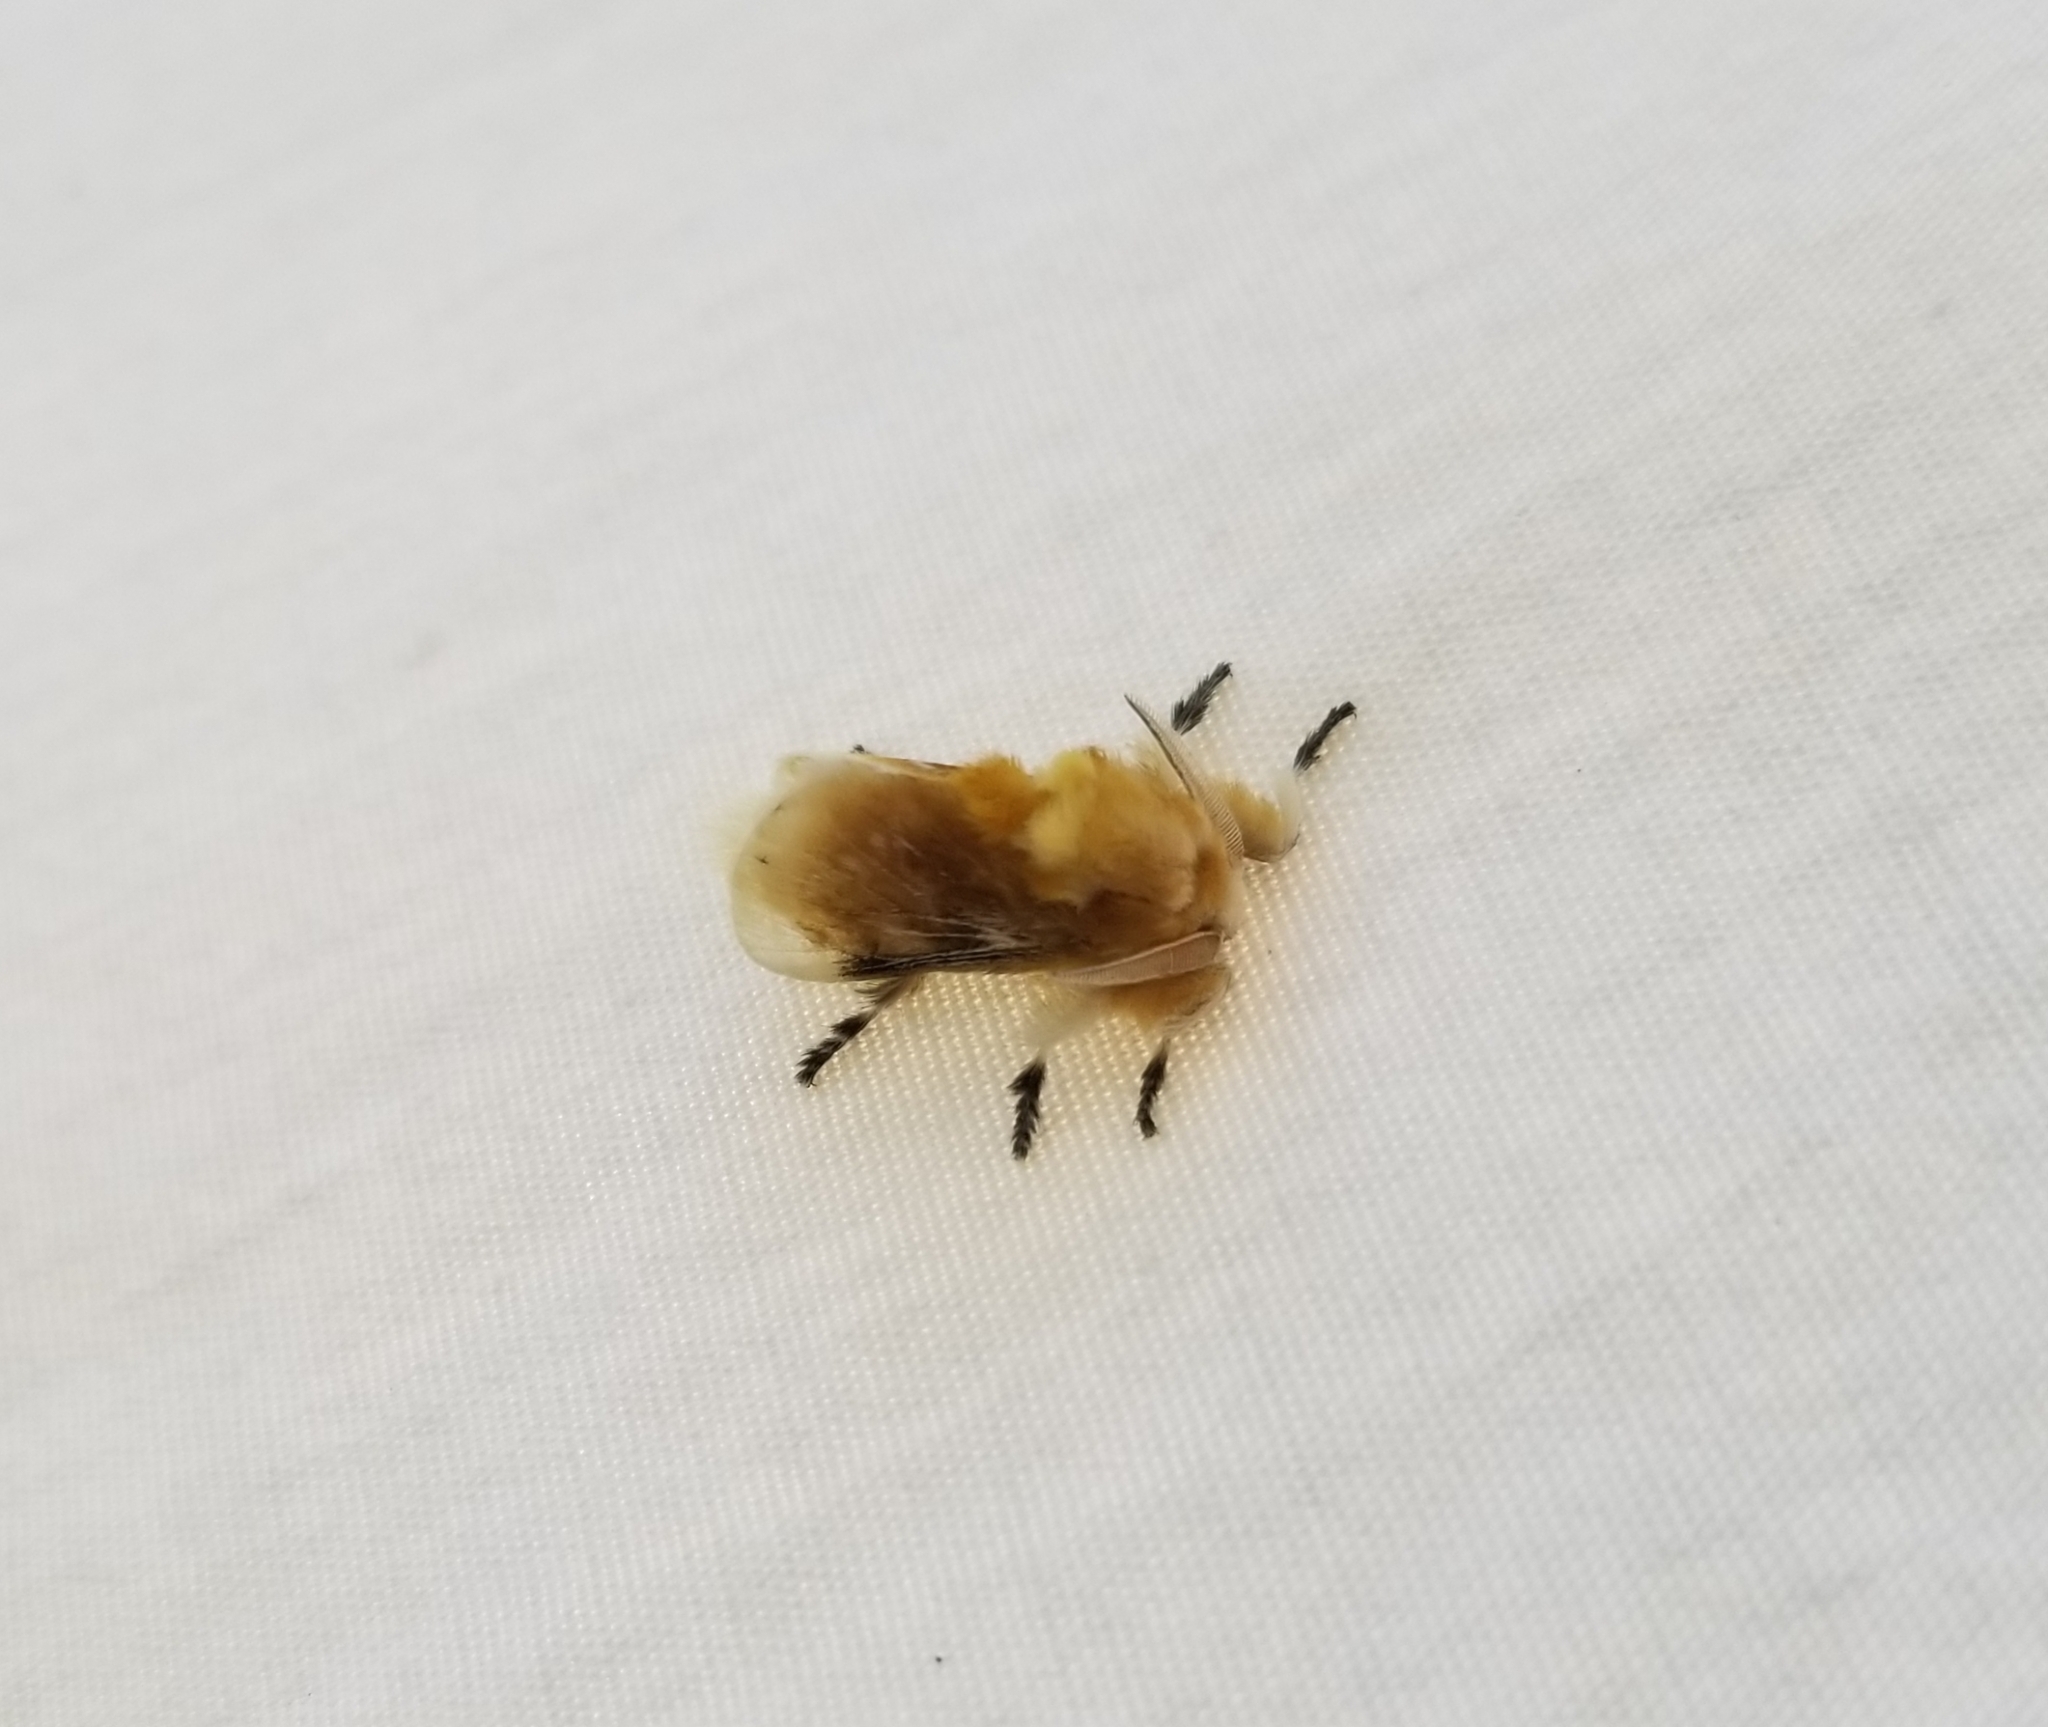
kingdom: Animalia
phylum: Arthropoda
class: Insecta
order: Lepidoptera
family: Megalopygidae
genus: Megalopyge
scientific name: Megalopyge opercularis
